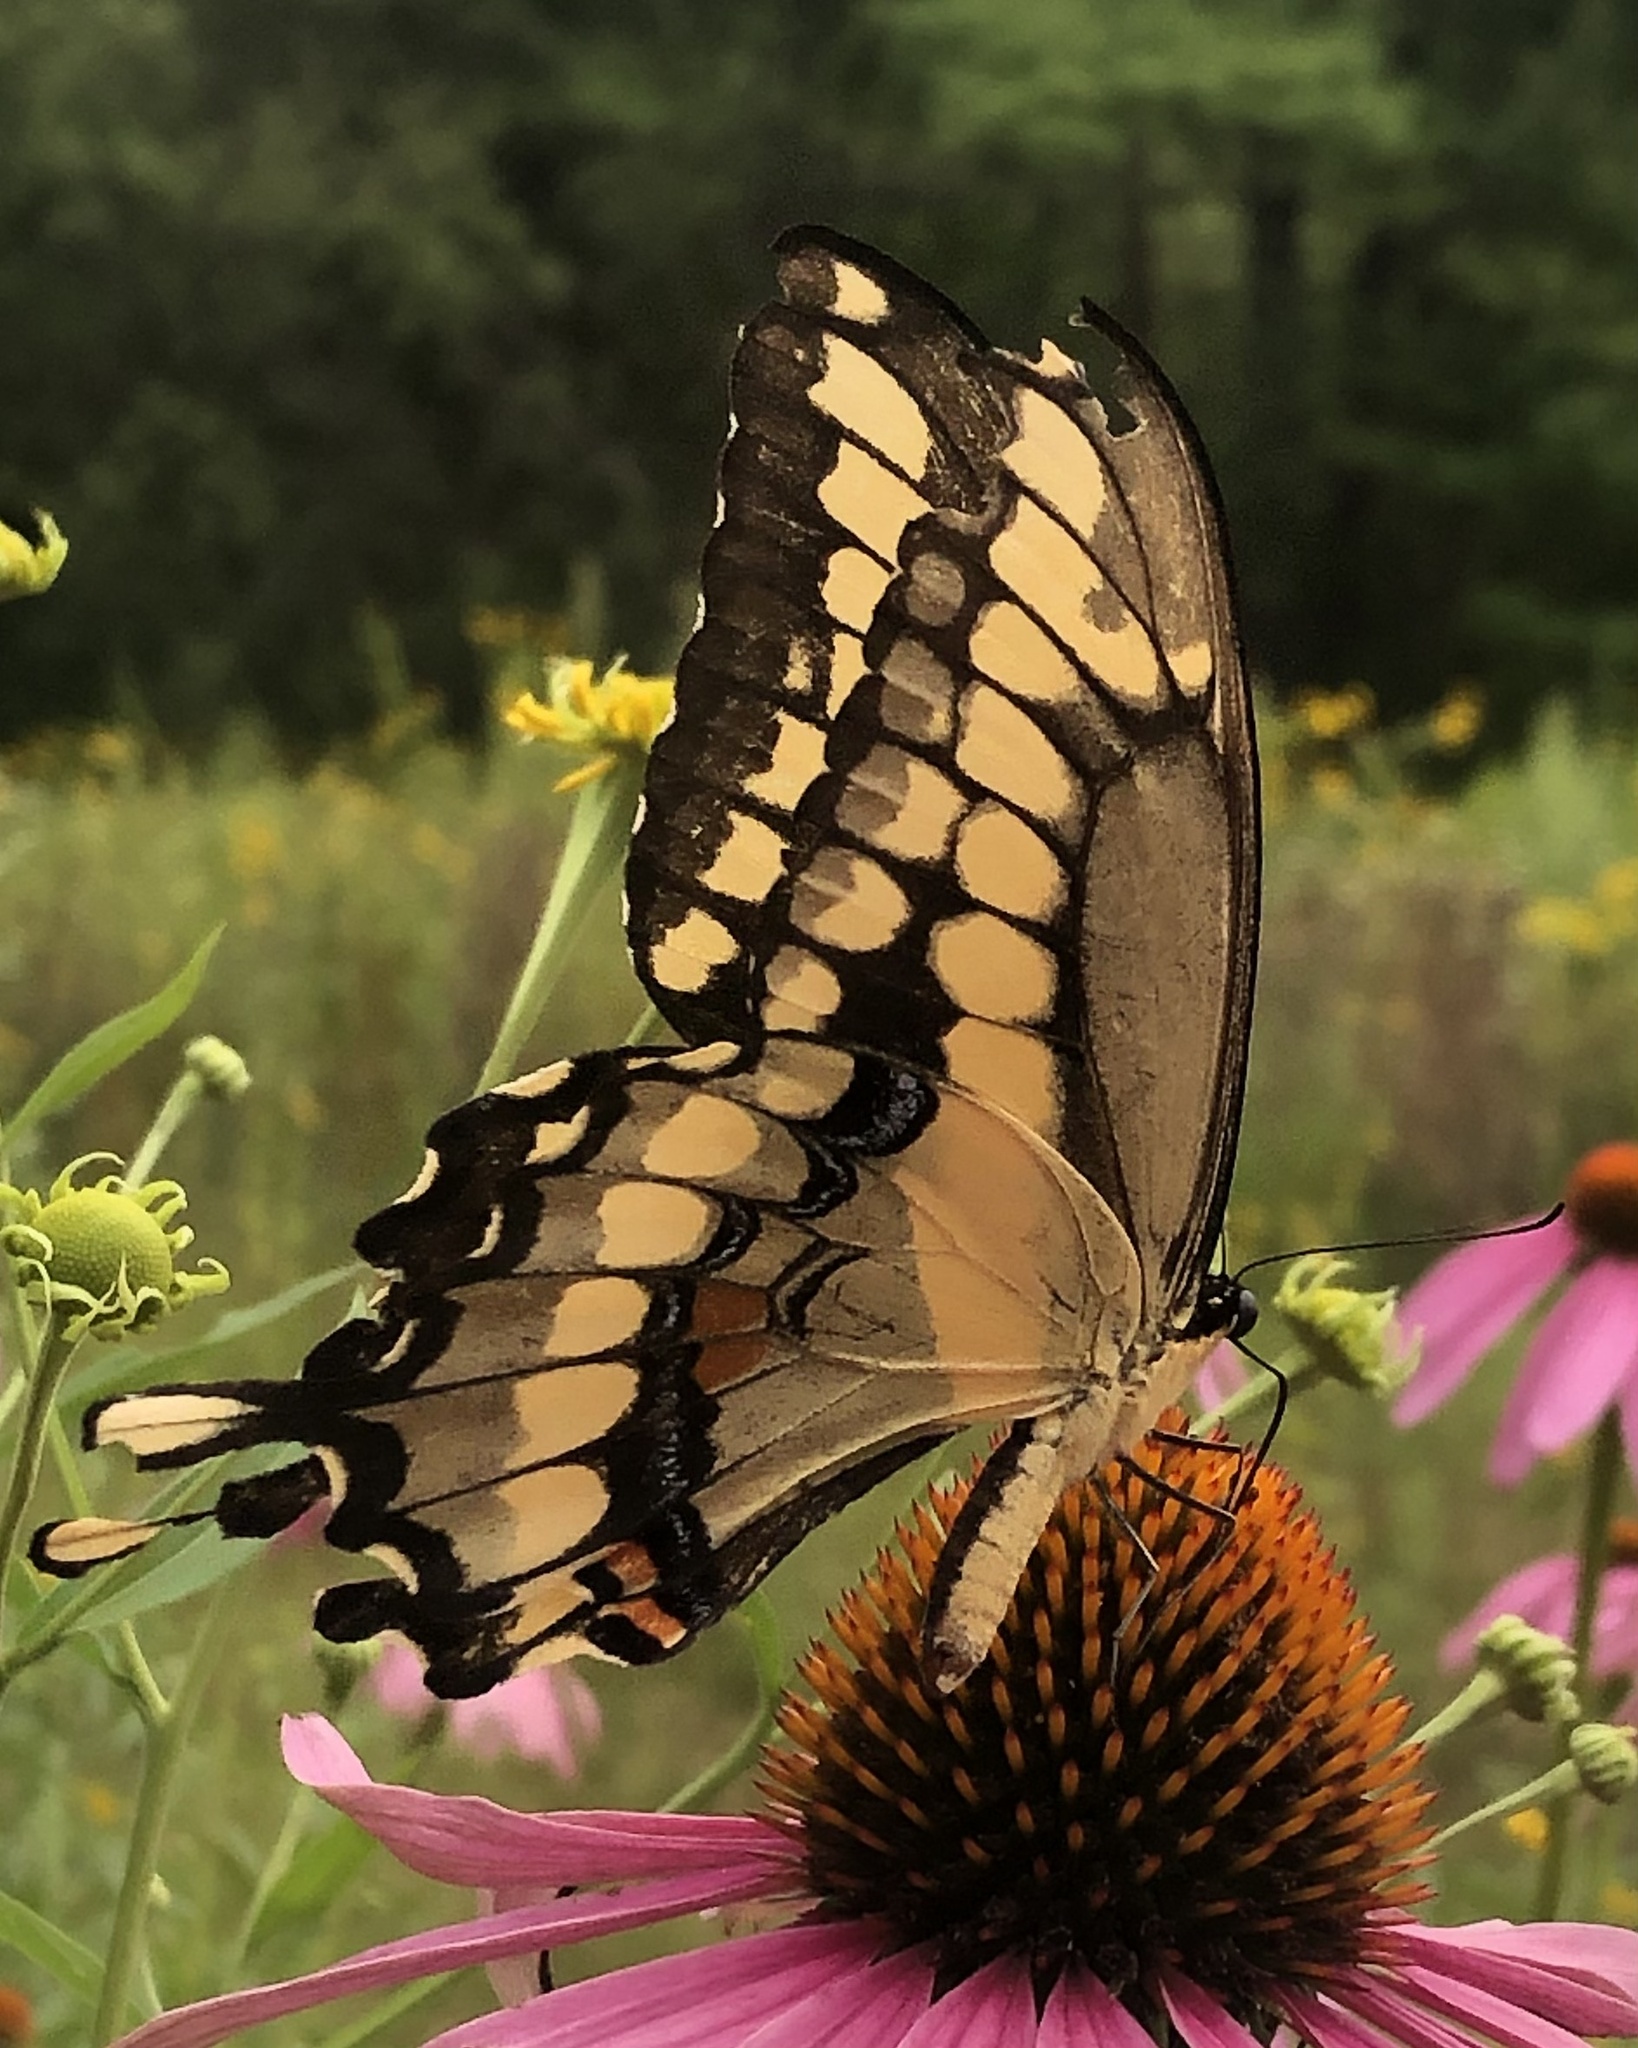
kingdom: Animalia
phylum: Arthropoda
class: Insecta
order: Lepidoptera
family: Papilionidae
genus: Papilio
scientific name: Papilio cresphontes
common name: Giant swallowtail
